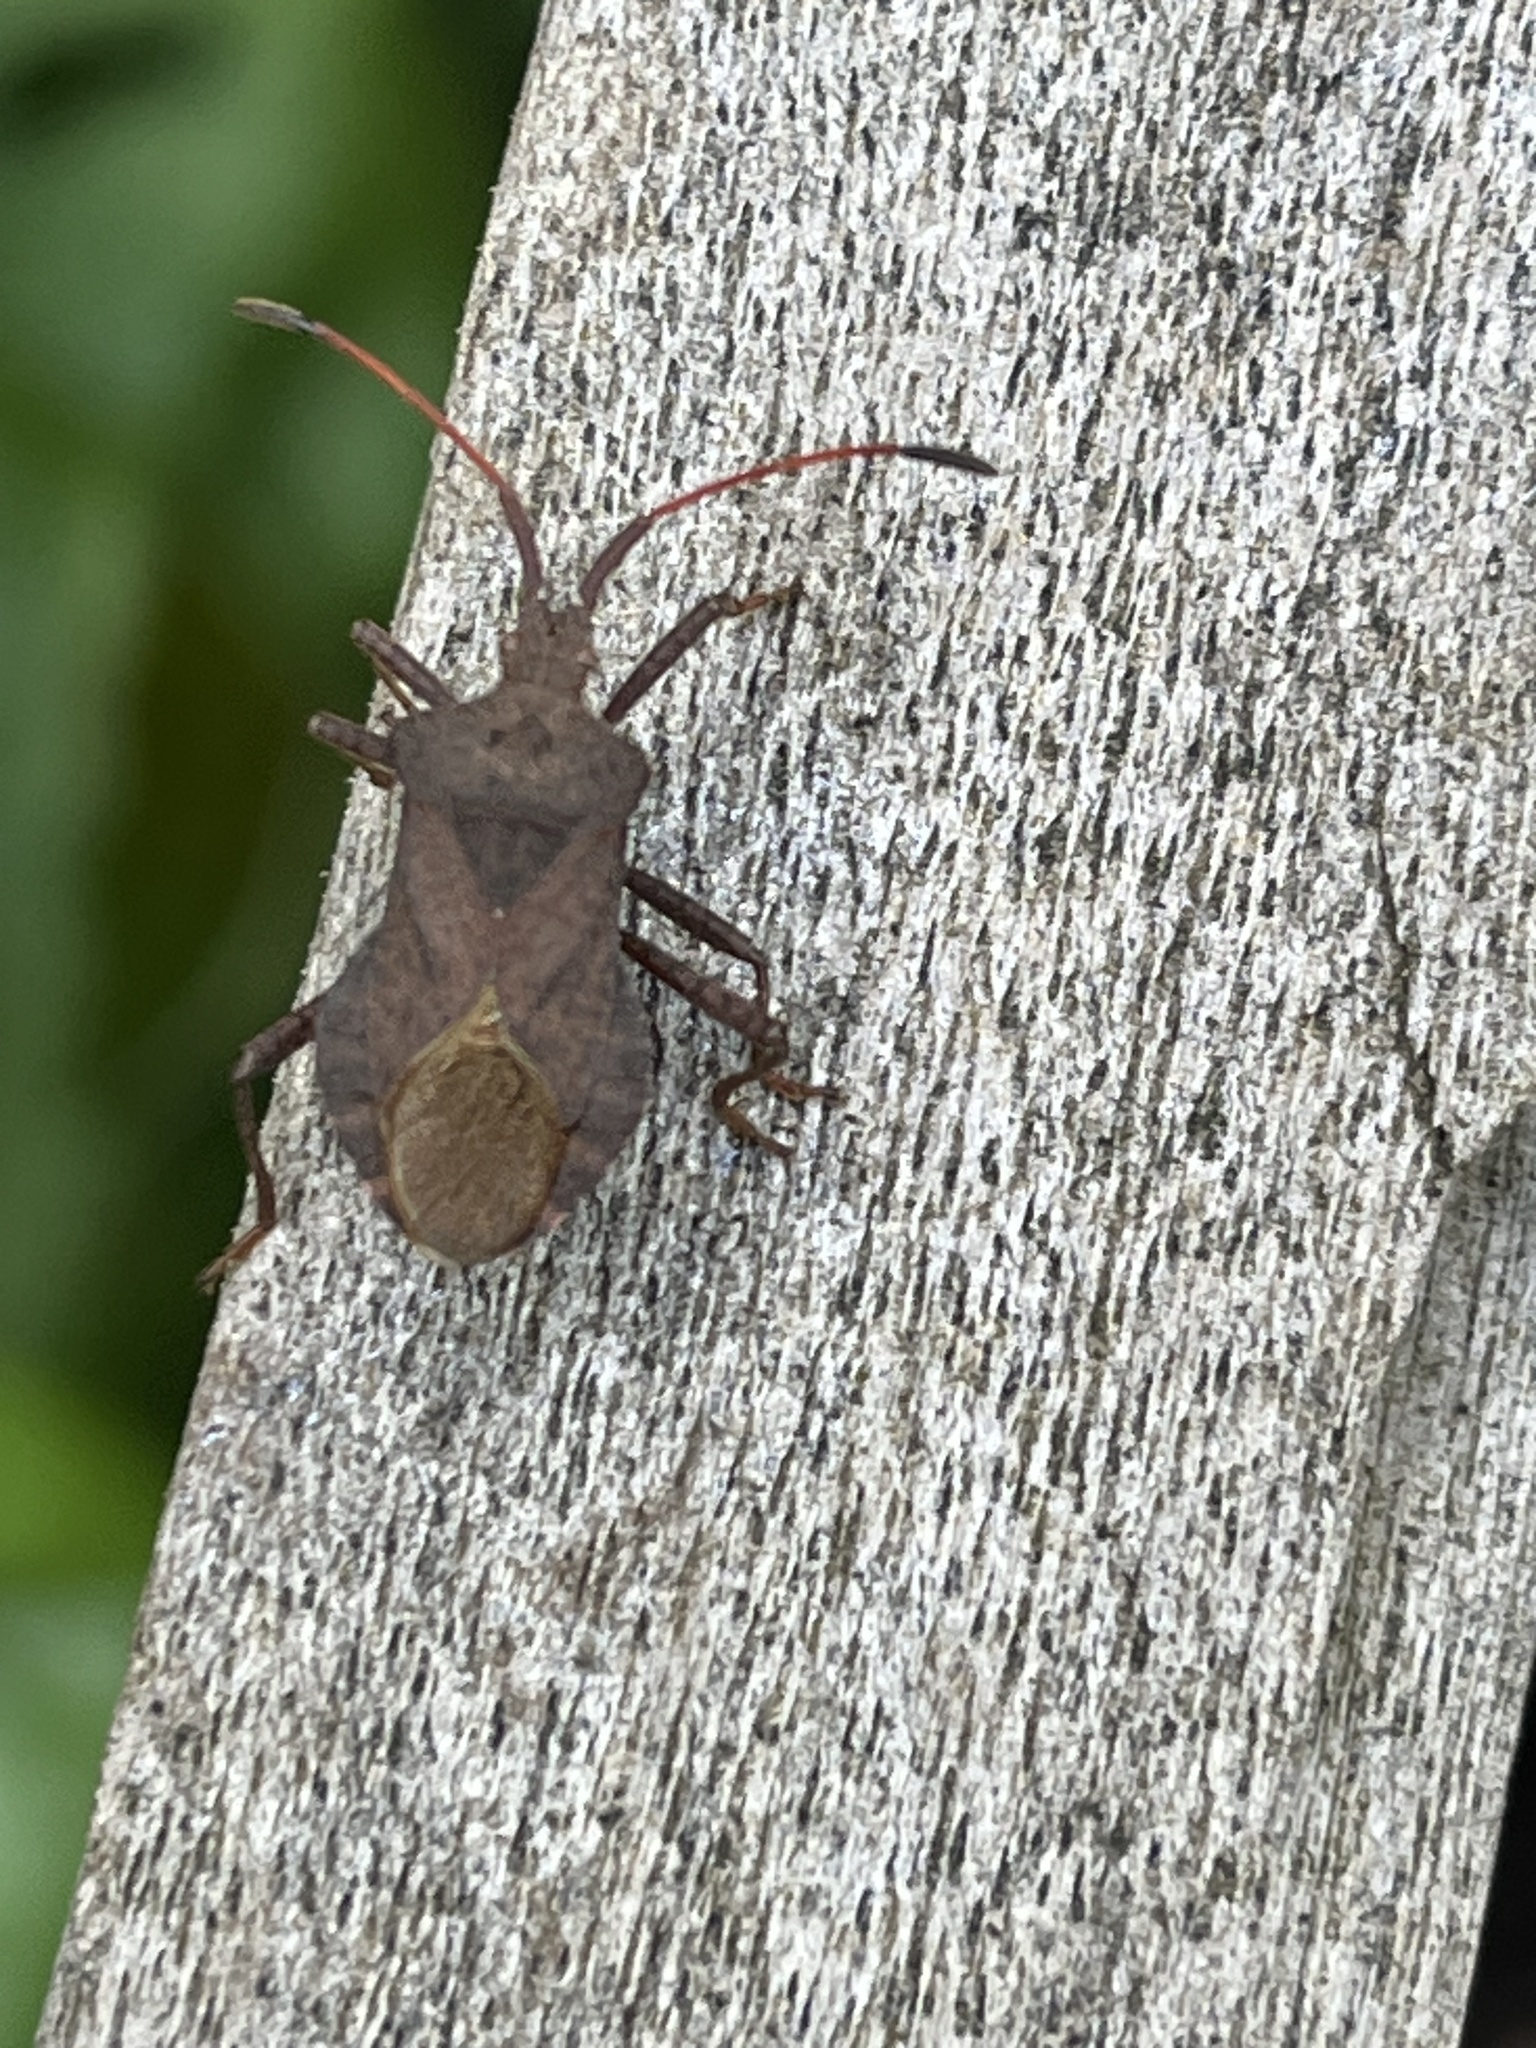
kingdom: Animalia
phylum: Arthropoda
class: Insecta
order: Hemiptera
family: Coreidae
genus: Coreus
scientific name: Coreus marginatus
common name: Dock bug
